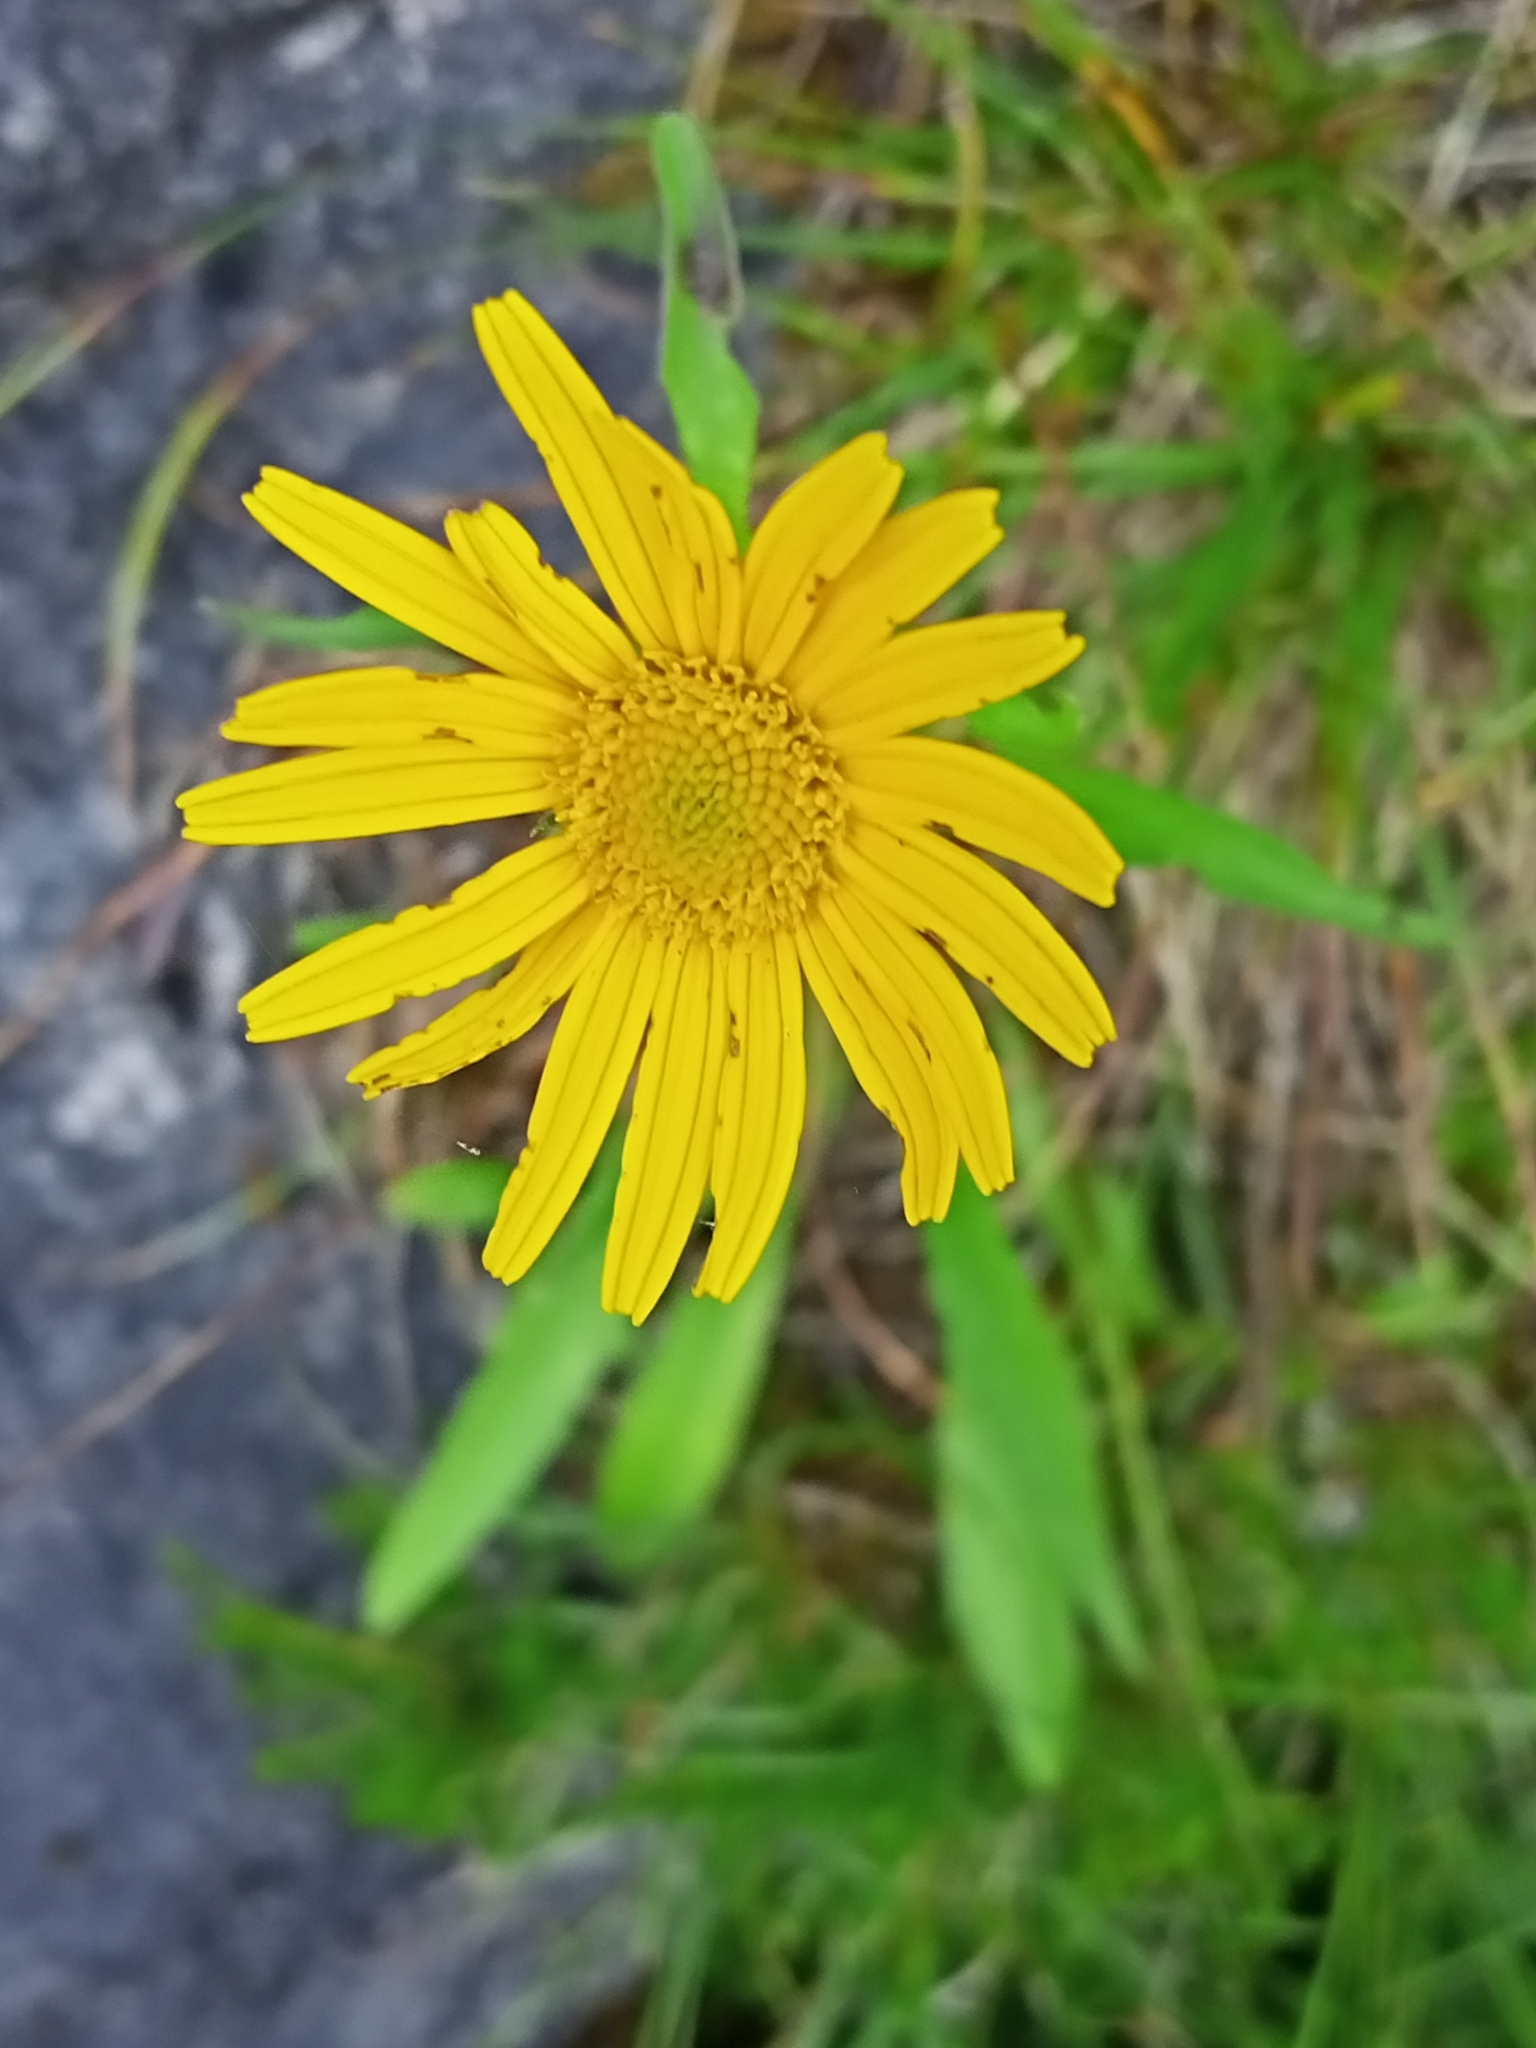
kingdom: Plantae
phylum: Tracheophyta
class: Magnoliopsida
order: Asterales
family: Asteraceae
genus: Buphthalmum
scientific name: Buphthalmum salicifolium
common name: Willow-leaved yellow-oxeye
